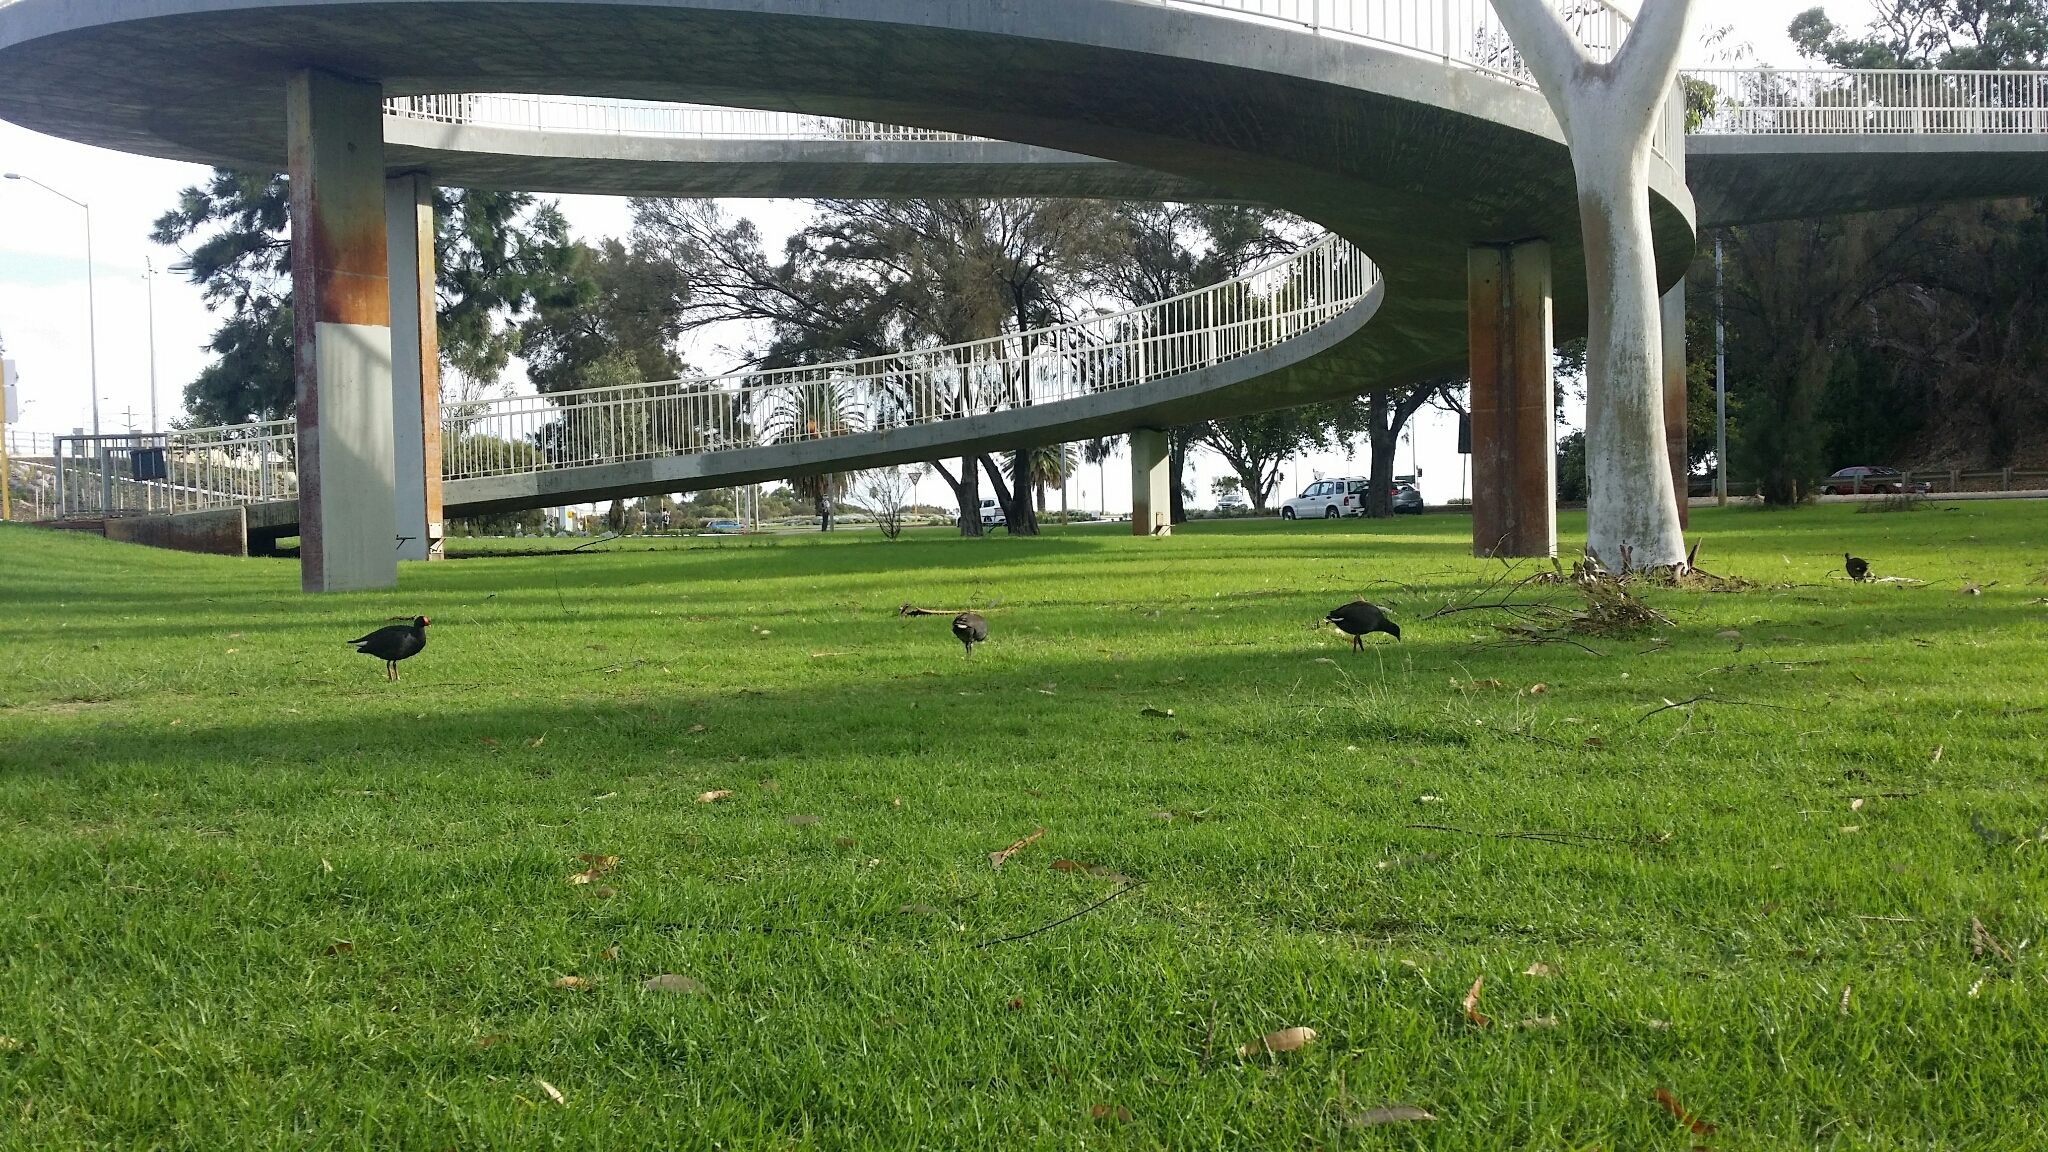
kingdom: Animalia
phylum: Chordata
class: Aves
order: Gruiformes
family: Rallidae
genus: Gallinula
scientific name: Gallinula tenebrosa
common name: Dusky moorhen
